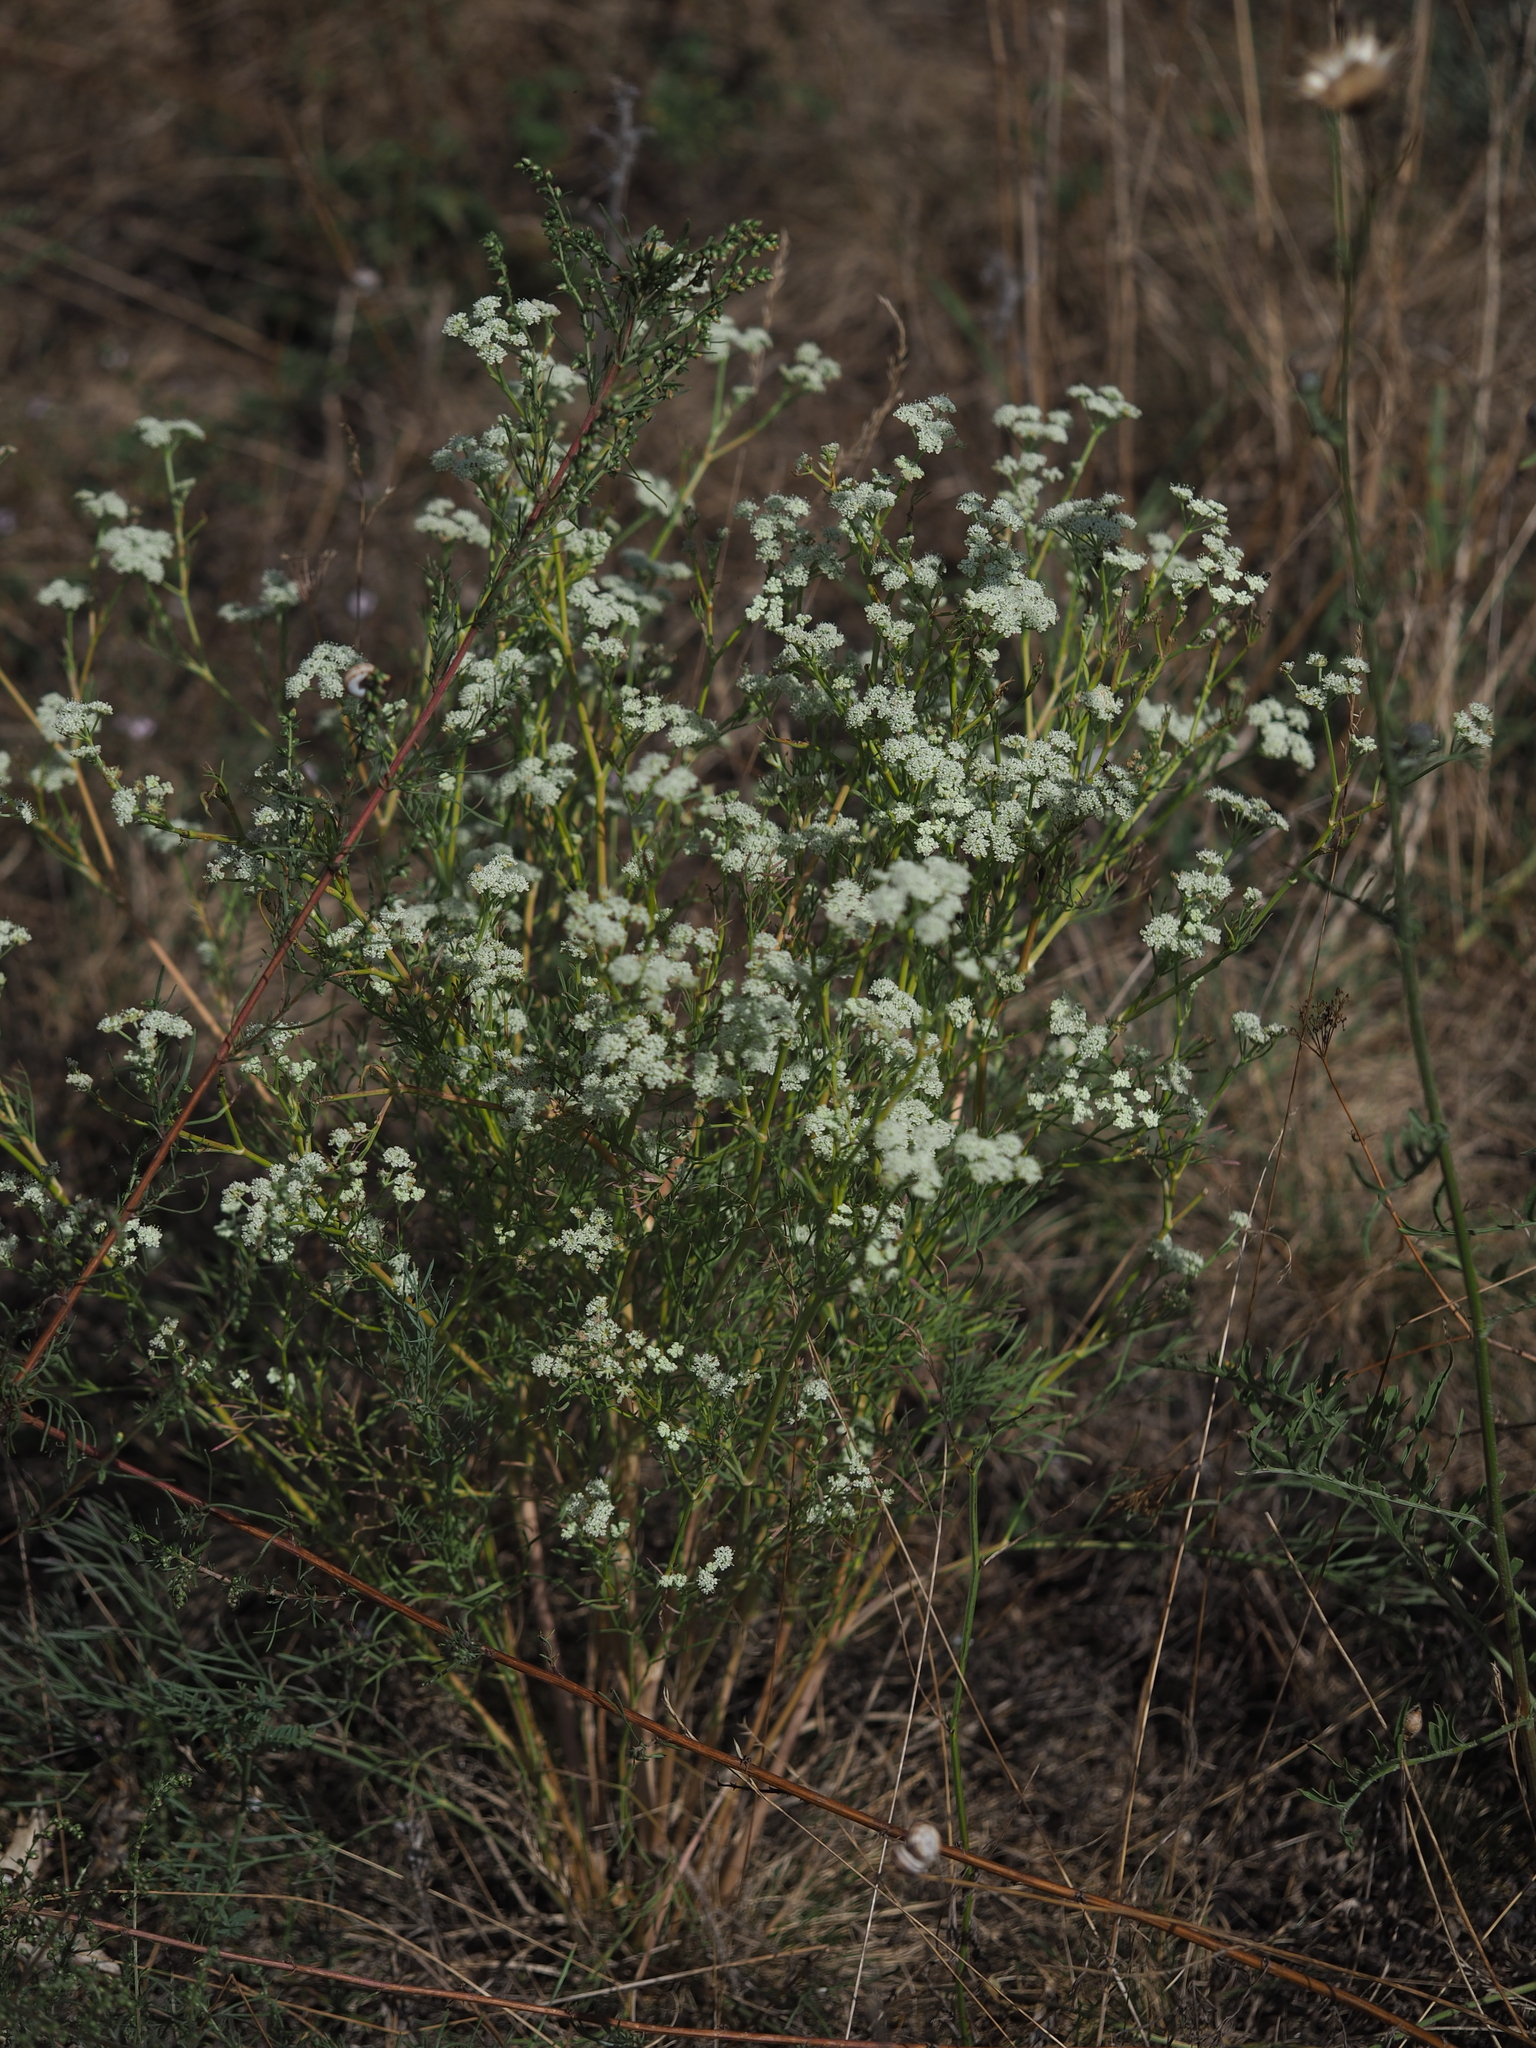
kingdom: Plantae
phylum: Tracheophyta
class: Magnoliopsida
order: Apiales
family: Apiaceae
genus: Seseli
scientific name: Seseli campestre
